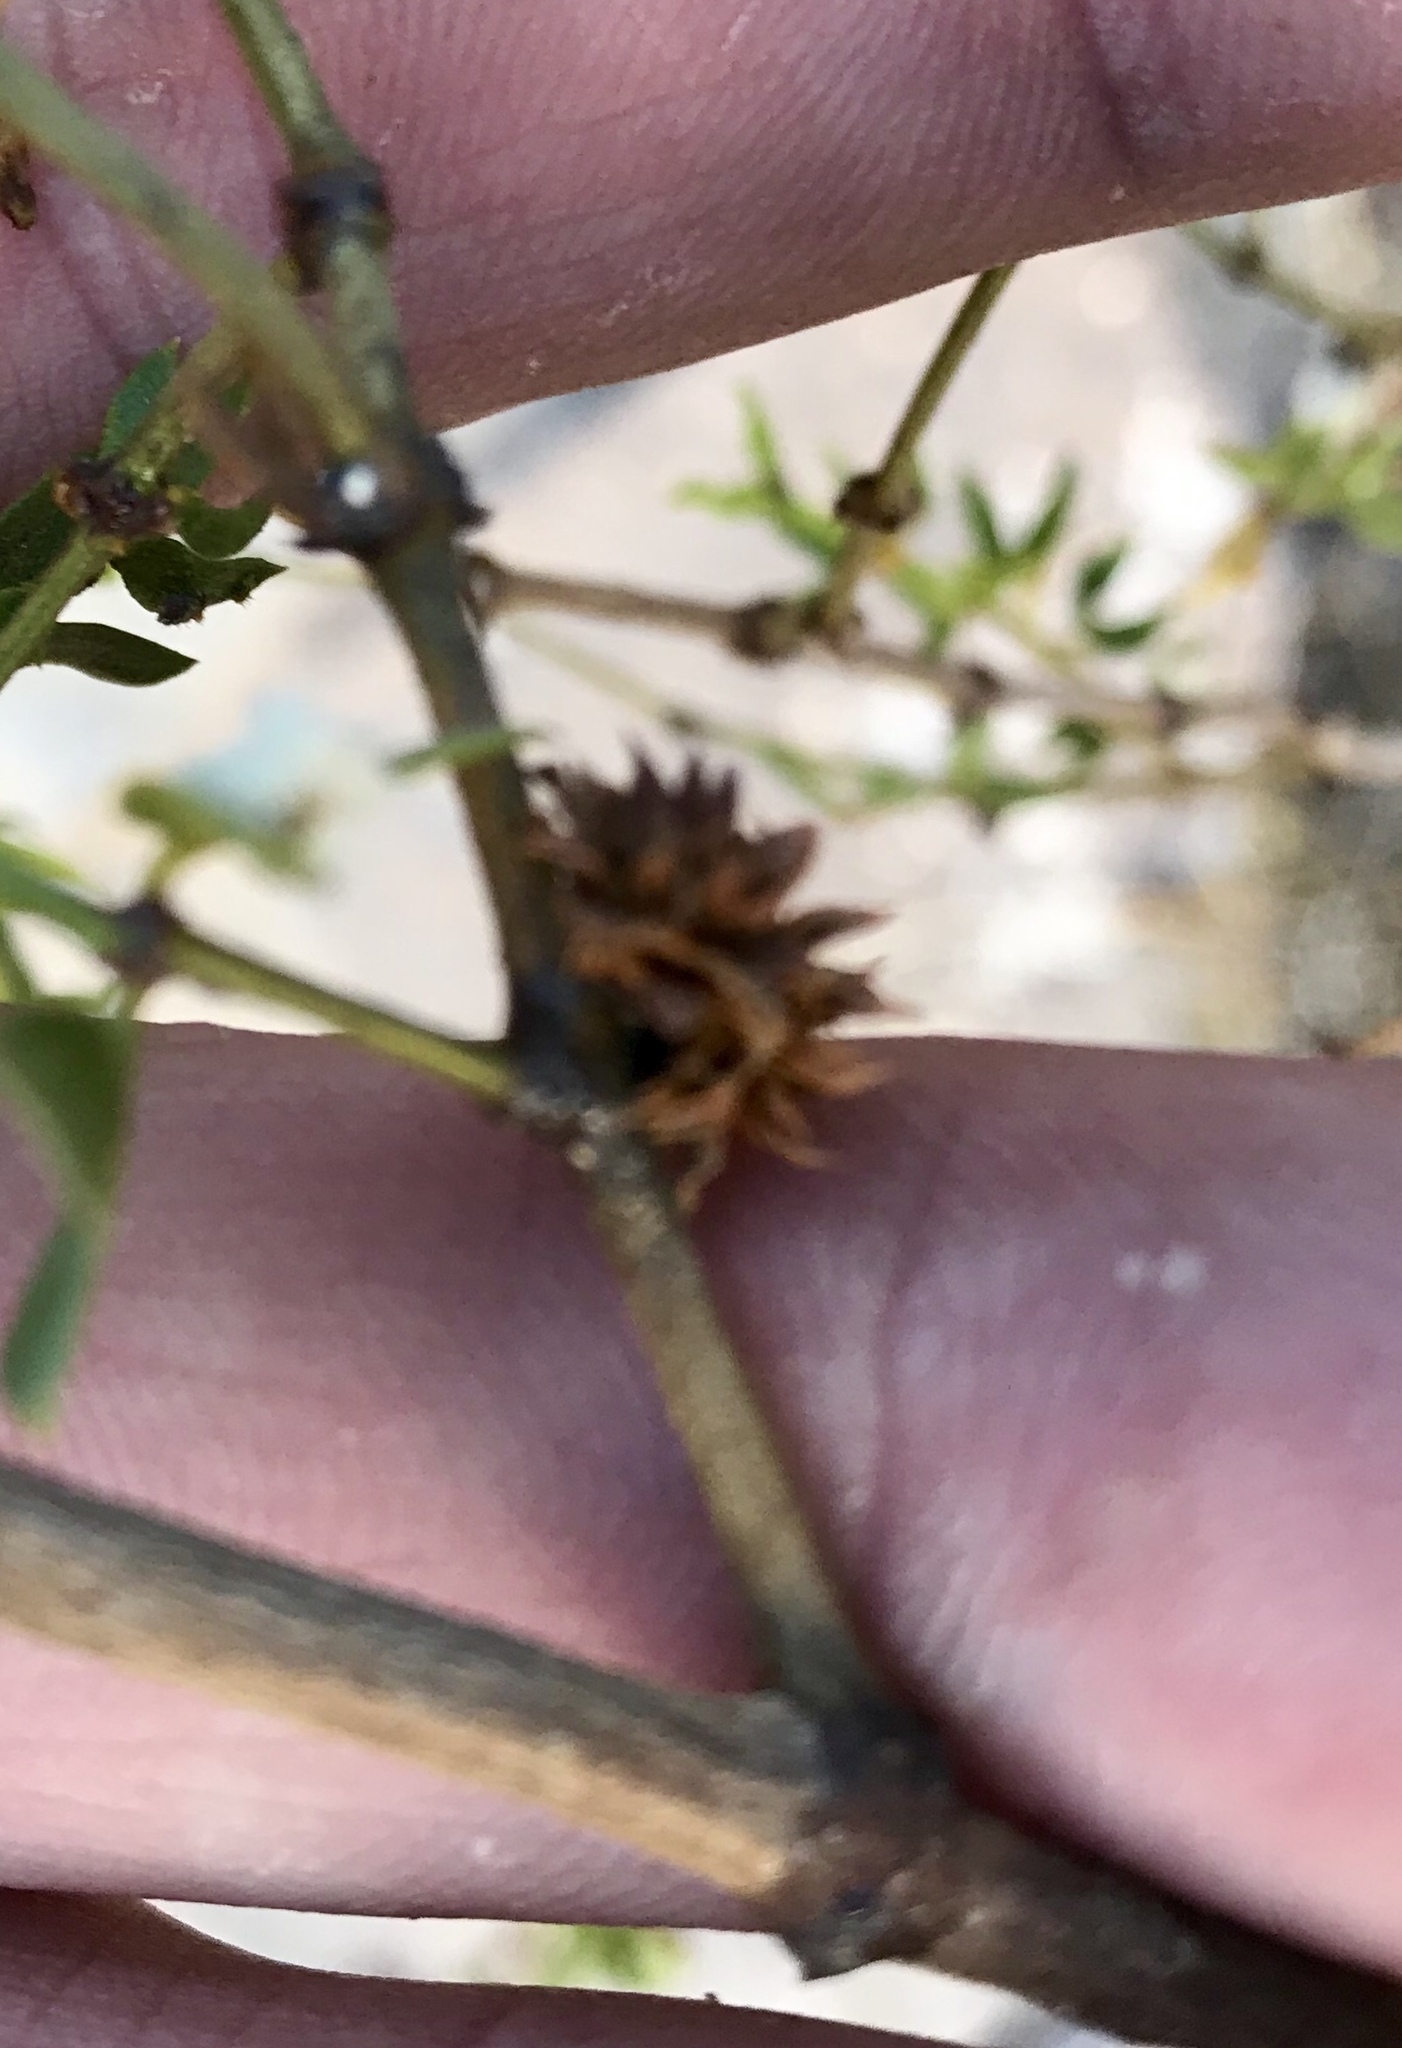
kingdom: Animalia
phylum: Arthropoda
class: Insecta
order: Diptera
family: Cecidomyiidae
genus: Asphondylia
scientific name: Asphondylia foliosa
